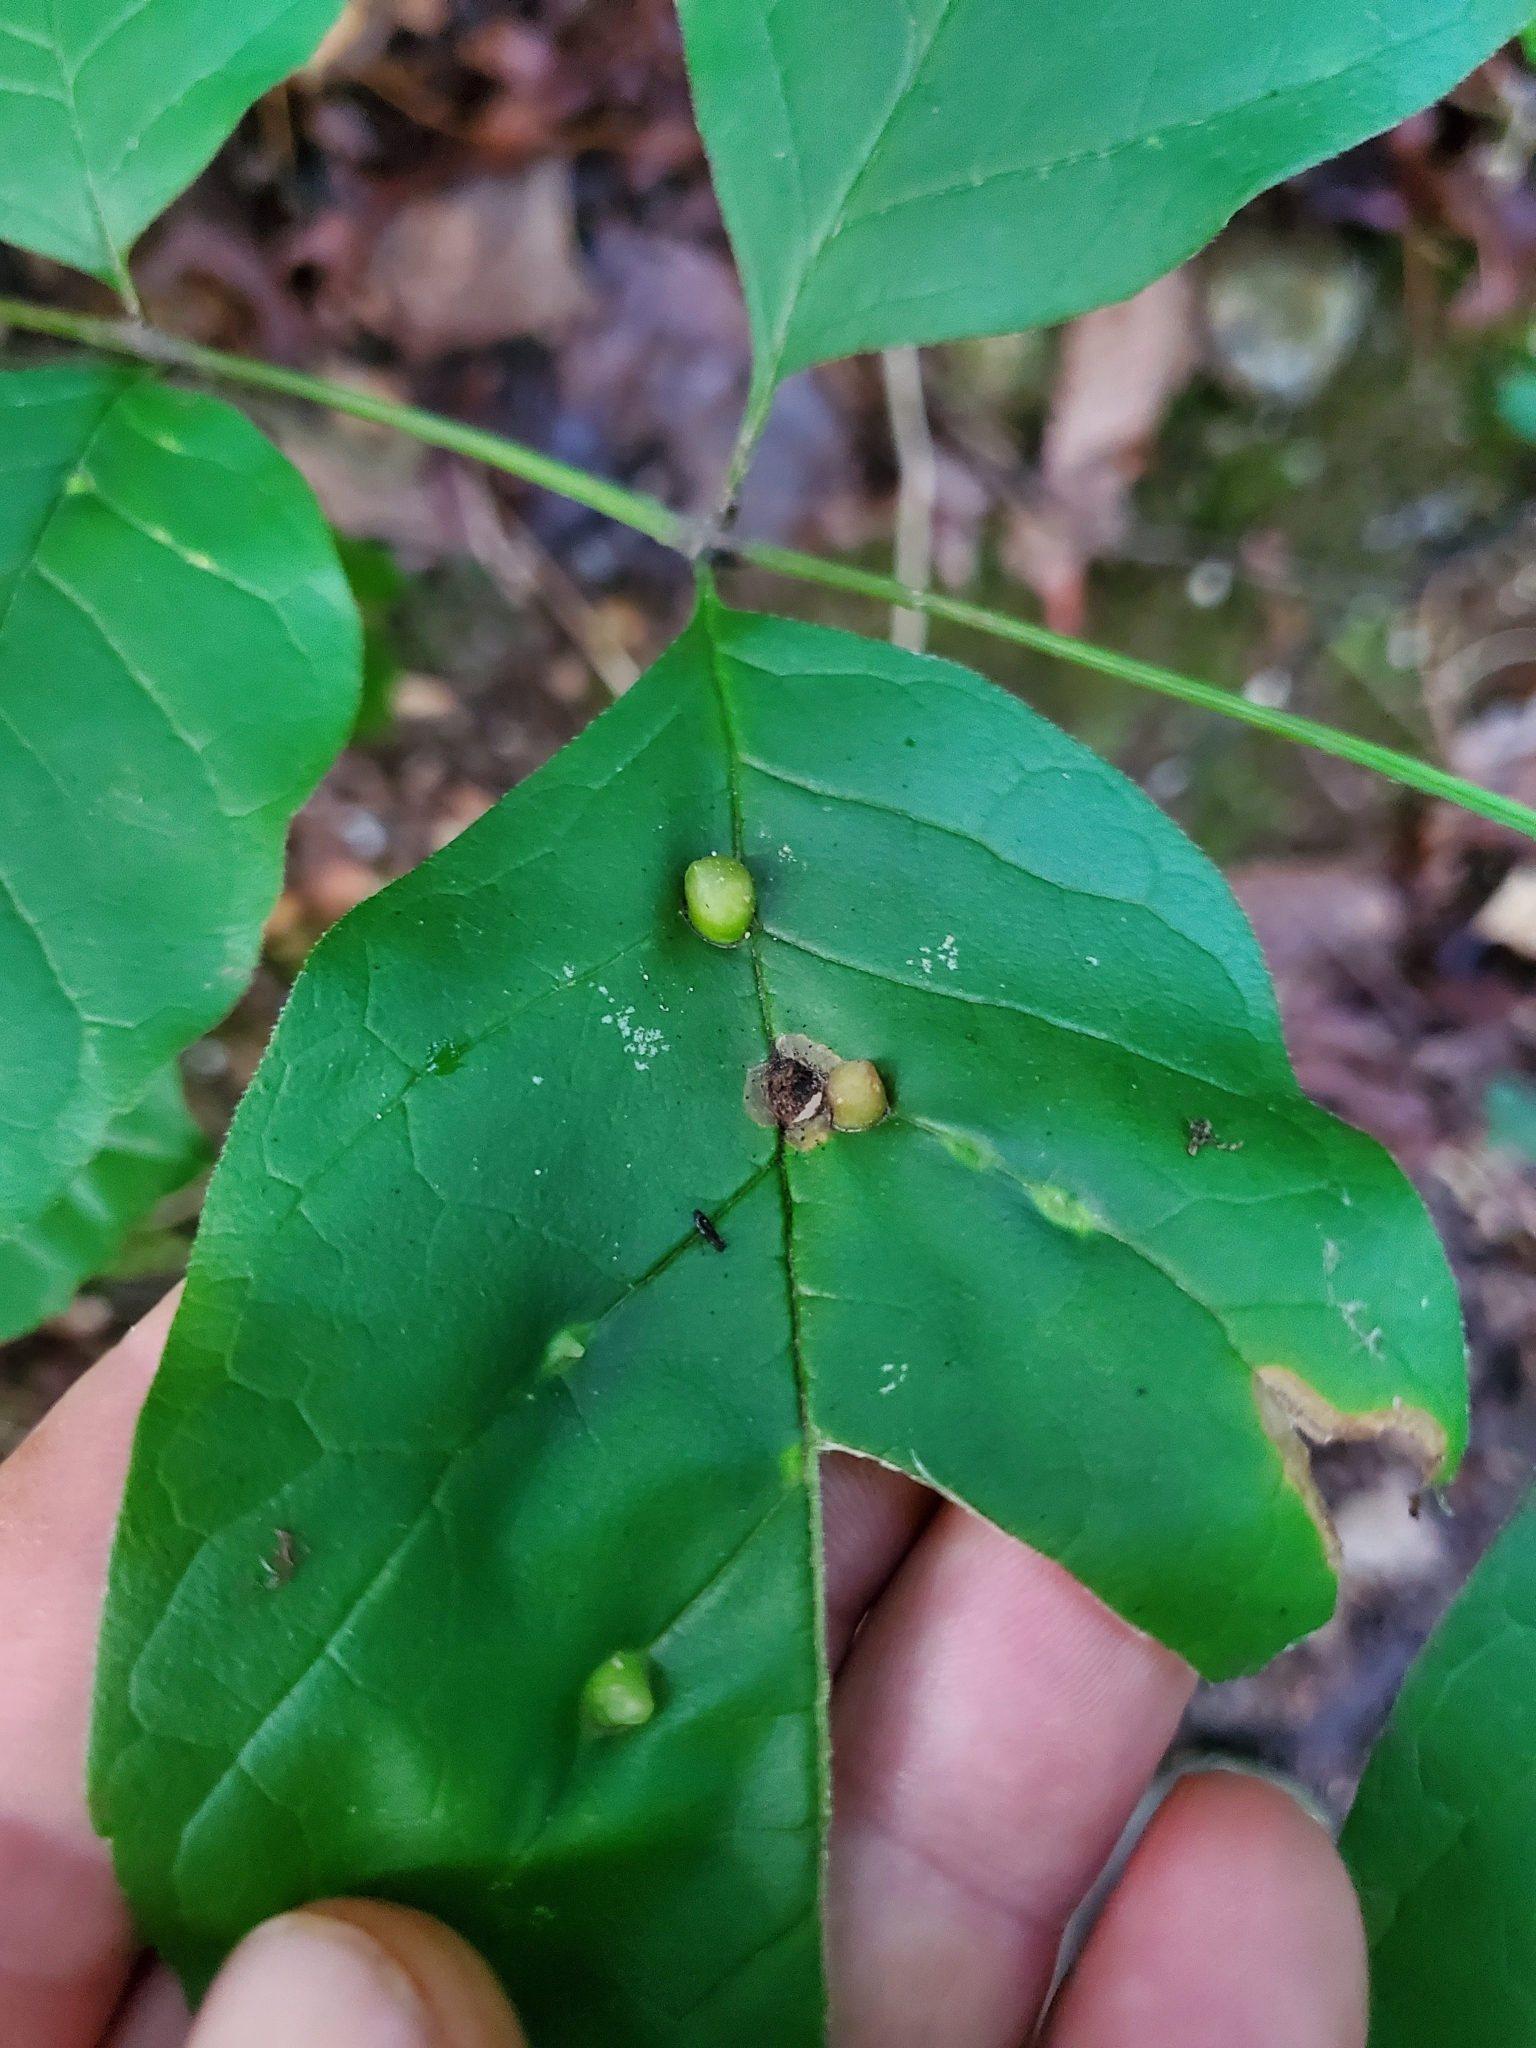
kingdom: Animalia
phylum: Arthropoda
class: Insecta
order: Diptera
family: Cecidomyiidae
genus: Dasineura
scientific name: Dasineura pellex
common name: Ash bullet gall midge
